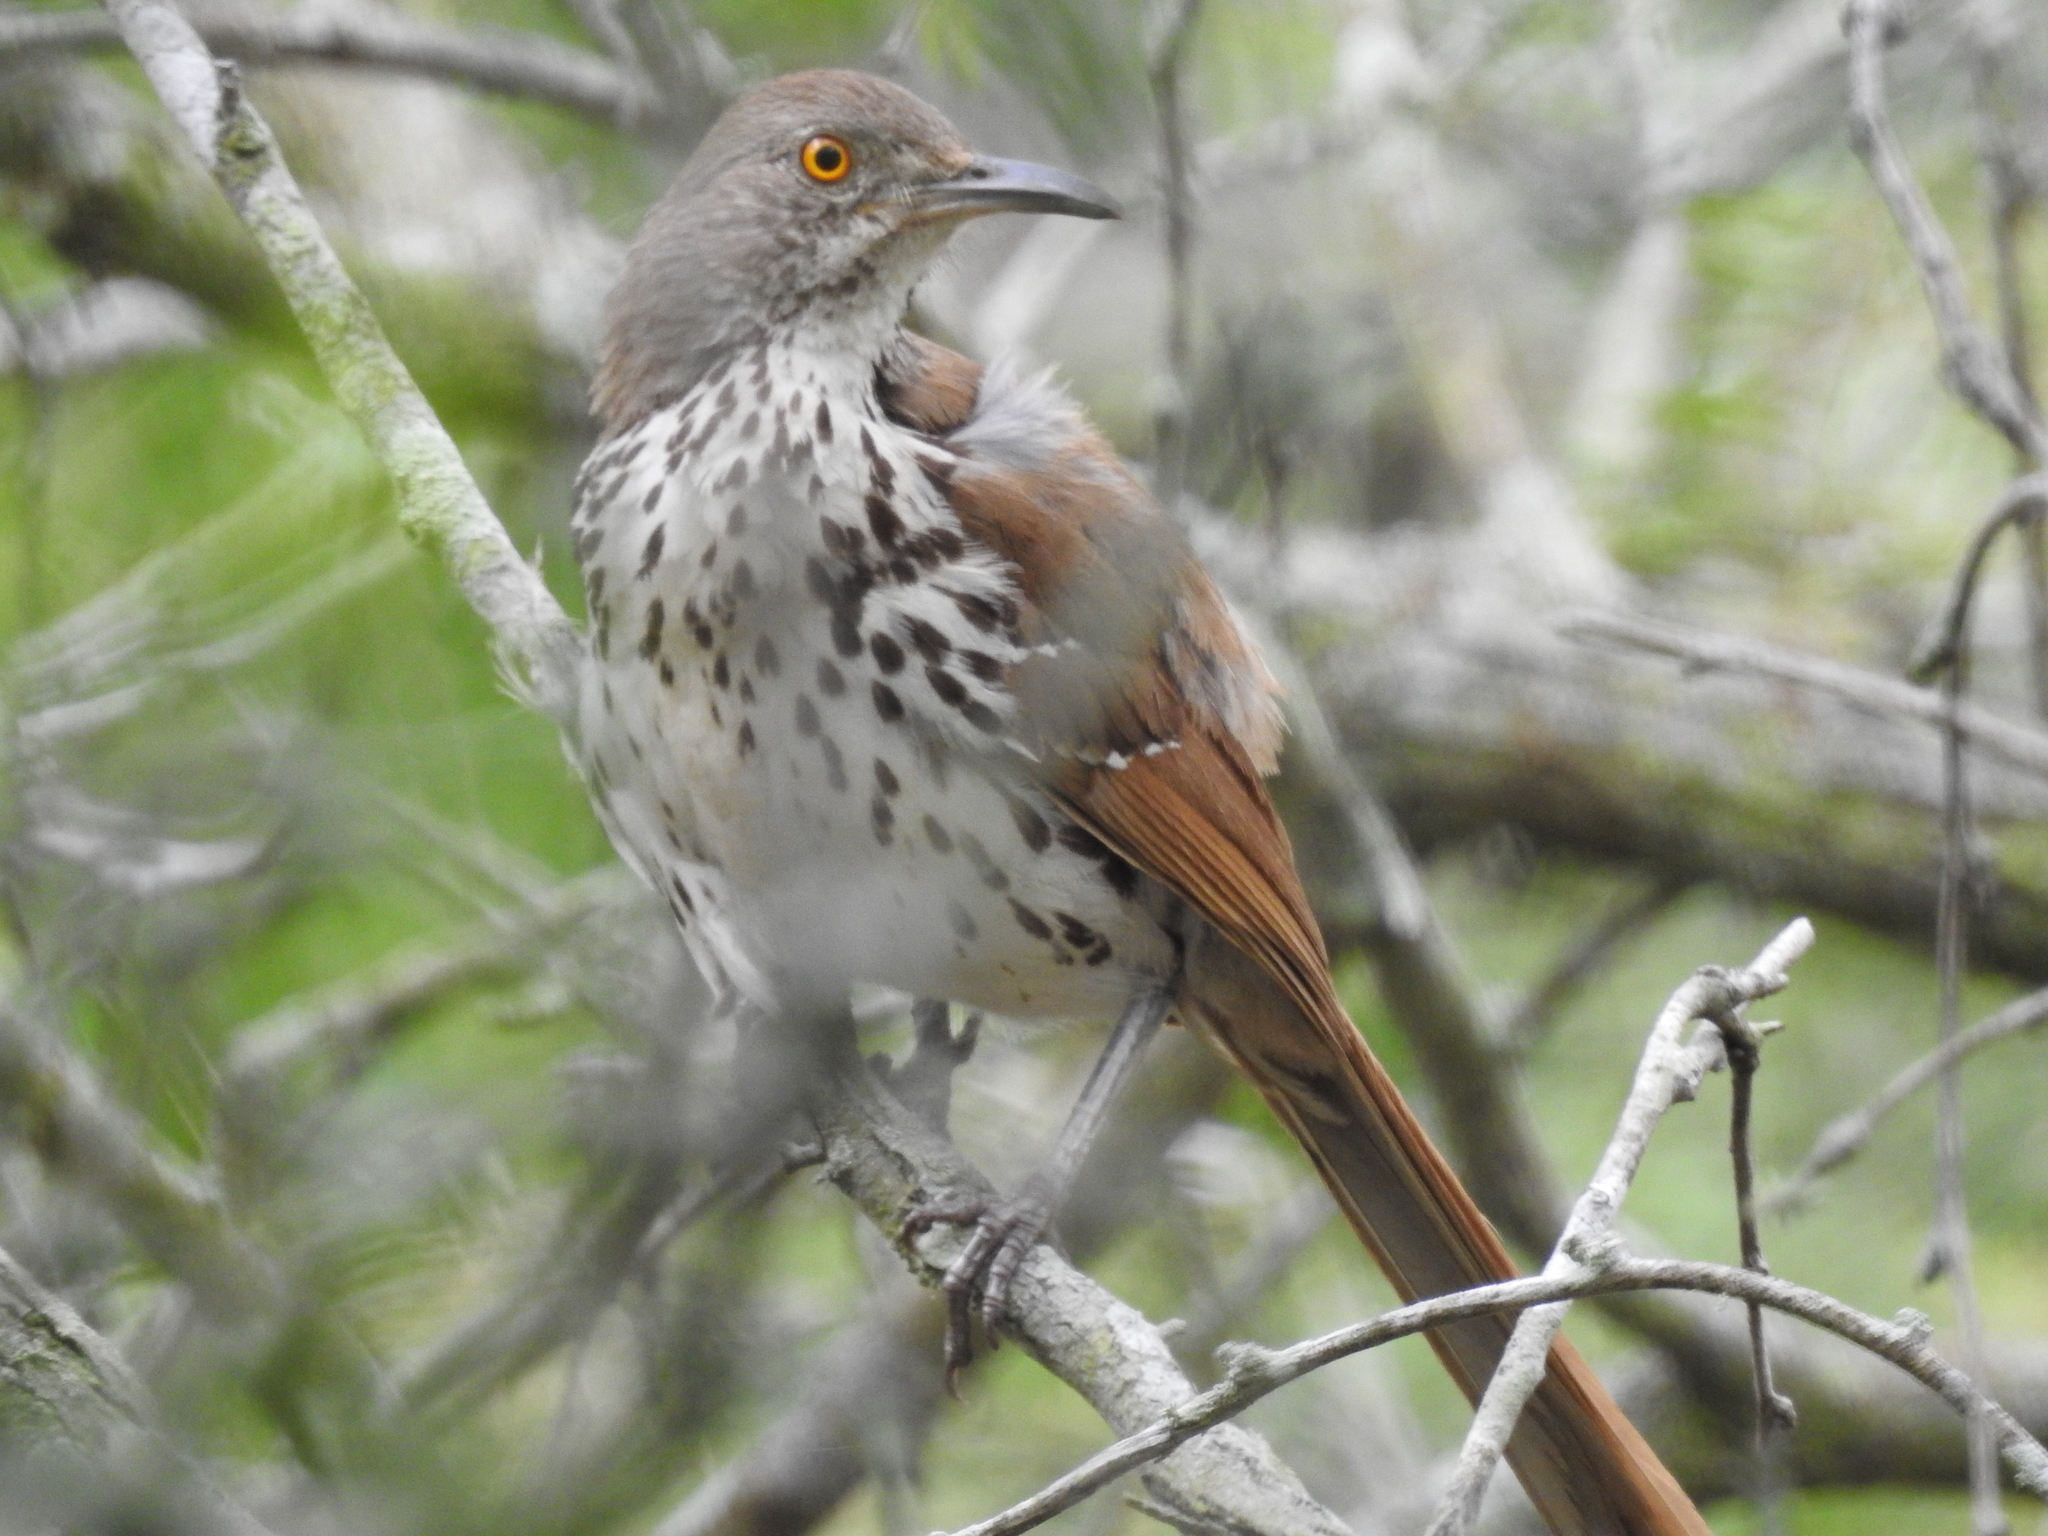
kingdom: Animalia
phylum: Chordata
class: Aves
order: Passeriformes
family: Mimidae
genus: Toxostoma
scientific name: Toxostoma longirostre
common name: Long-billed thrasher
